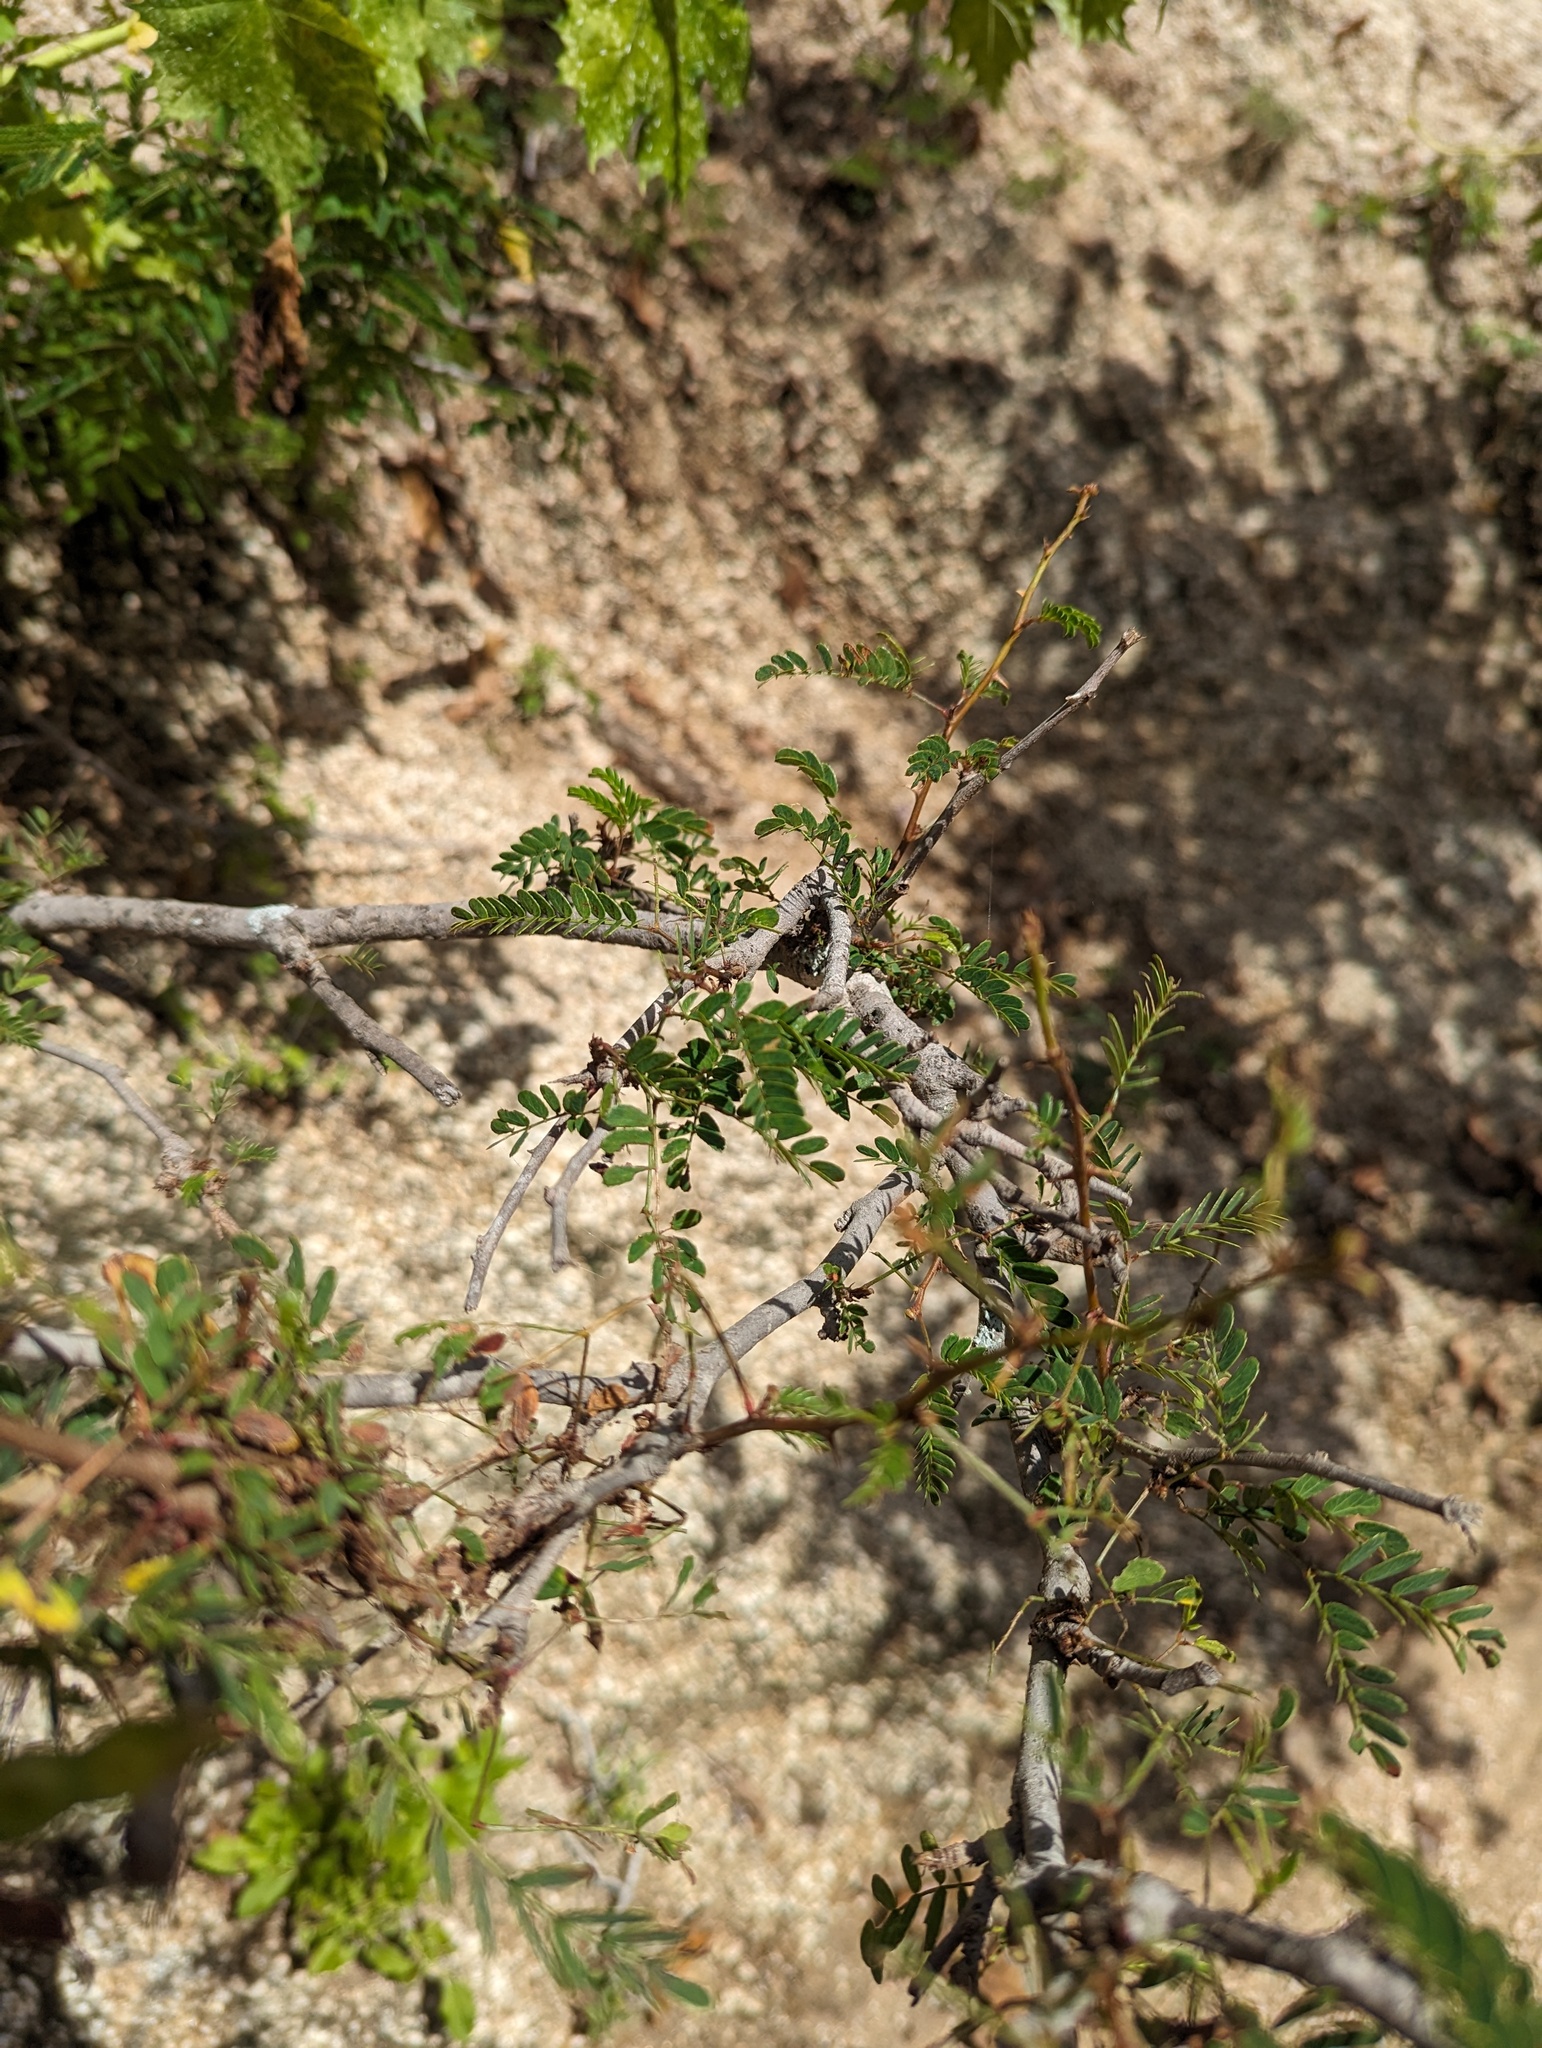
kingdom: Plantae
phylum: Tracheophyta
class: Magnoliopsida
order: Fabales
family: Fabaceae
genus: Mimosa
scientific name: Mimosa tricephala
